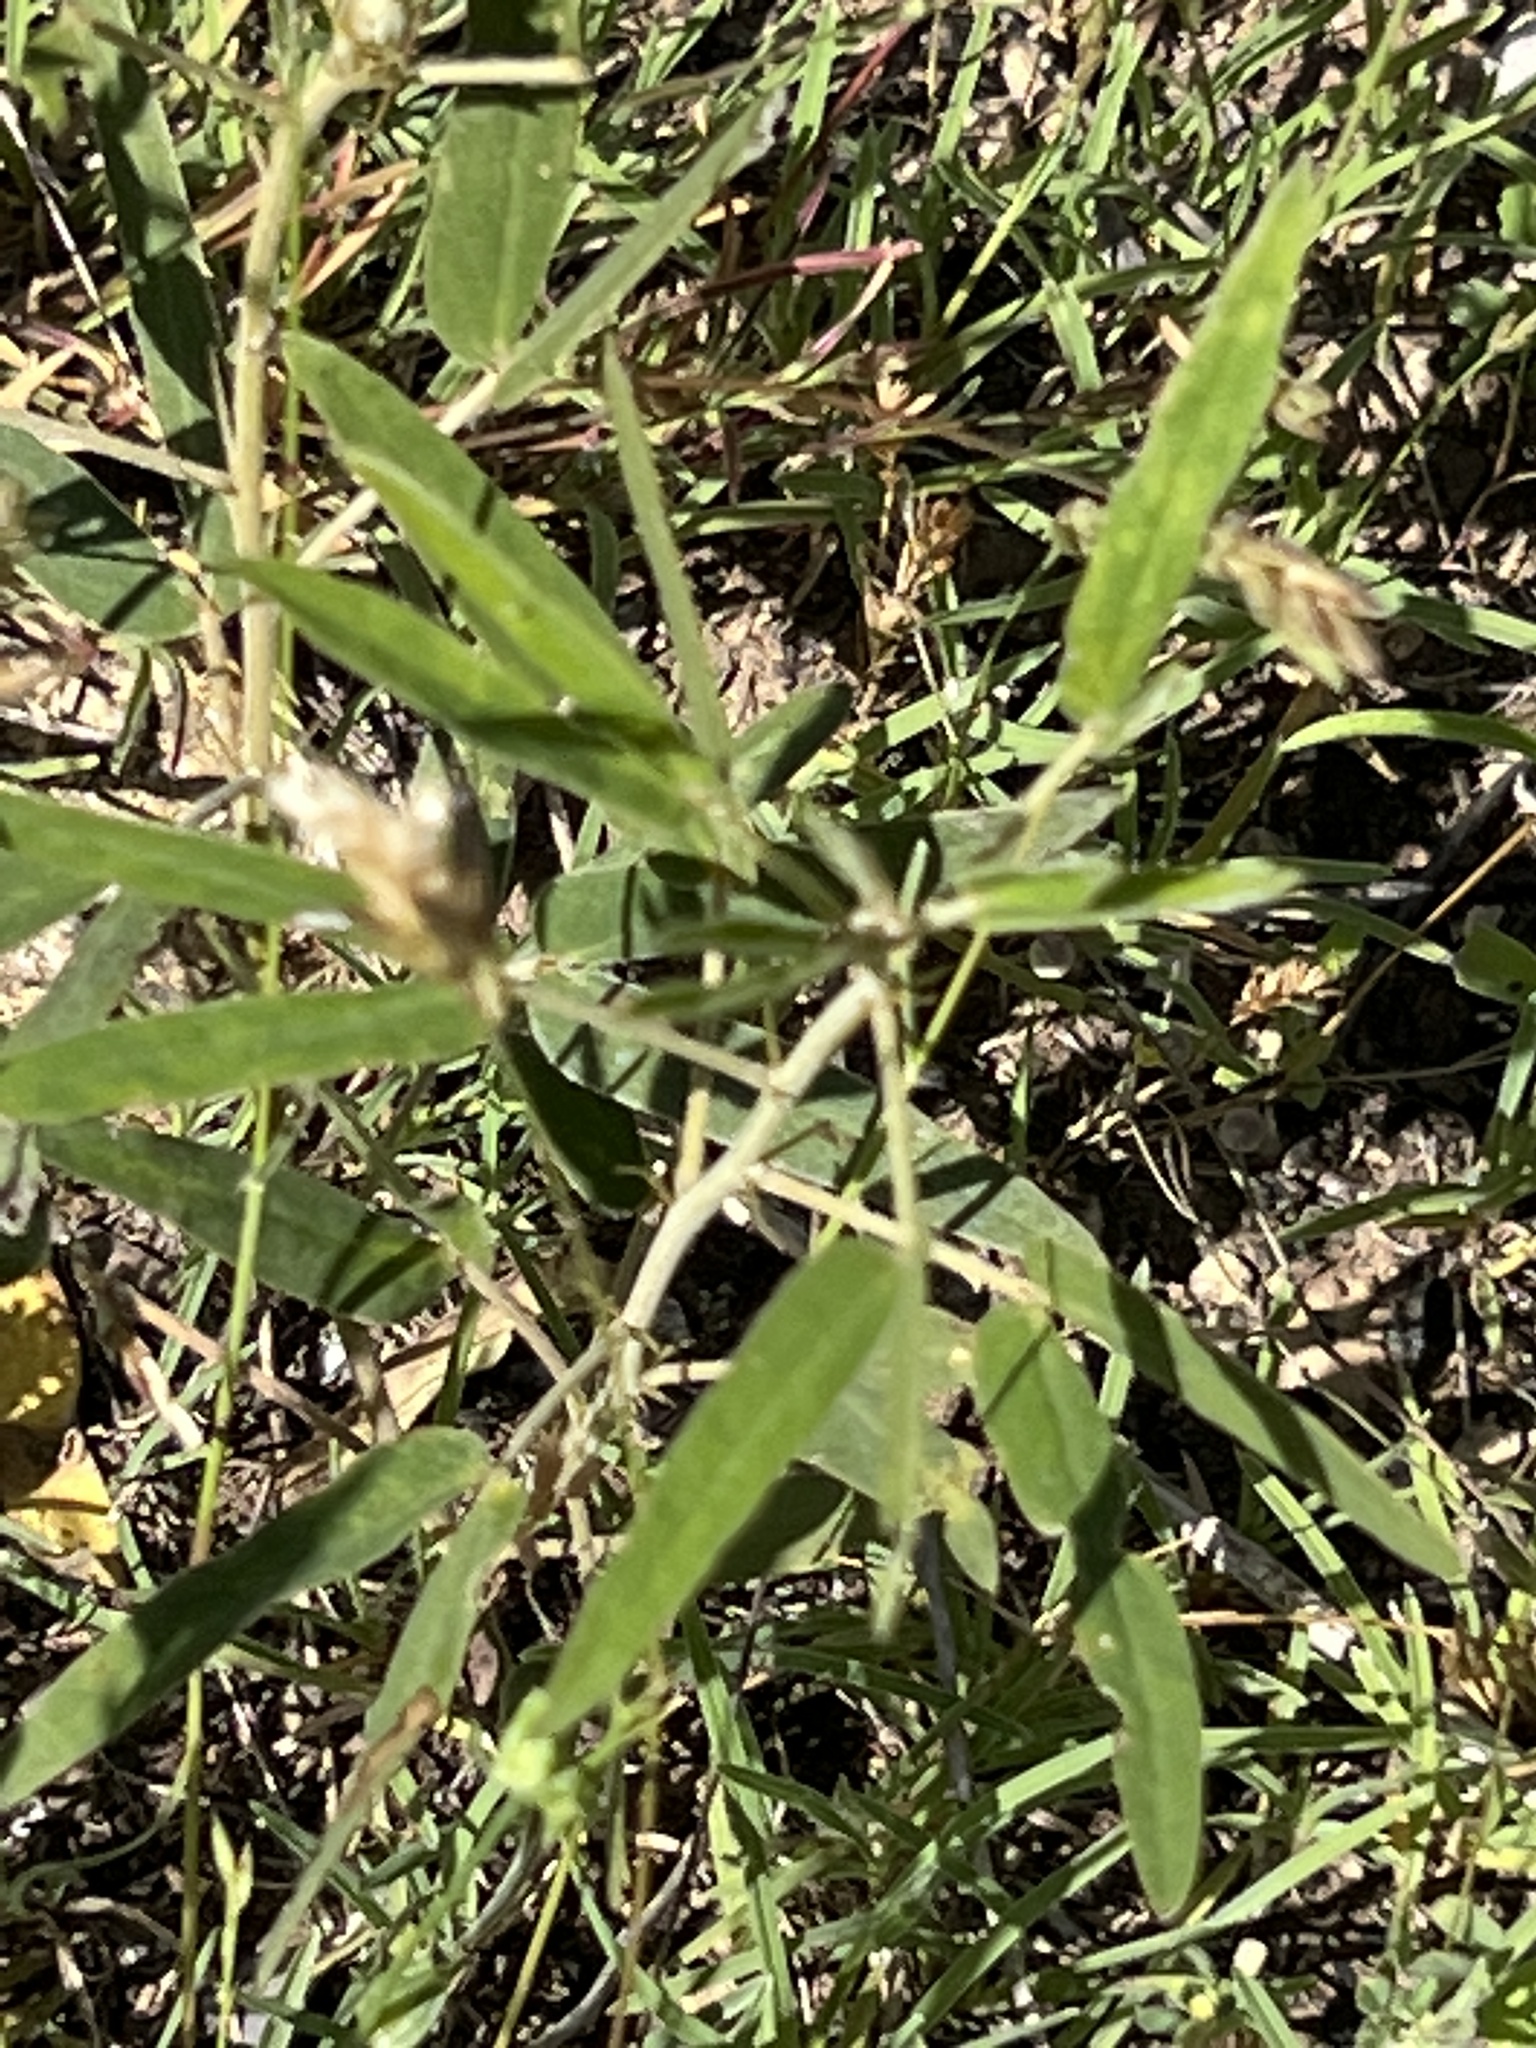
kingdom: Plantae
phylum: Tracheophyta
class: Magnoliopsida
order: Fabales
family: Fabaceae
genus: Senna
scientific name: Senna roemeriana
